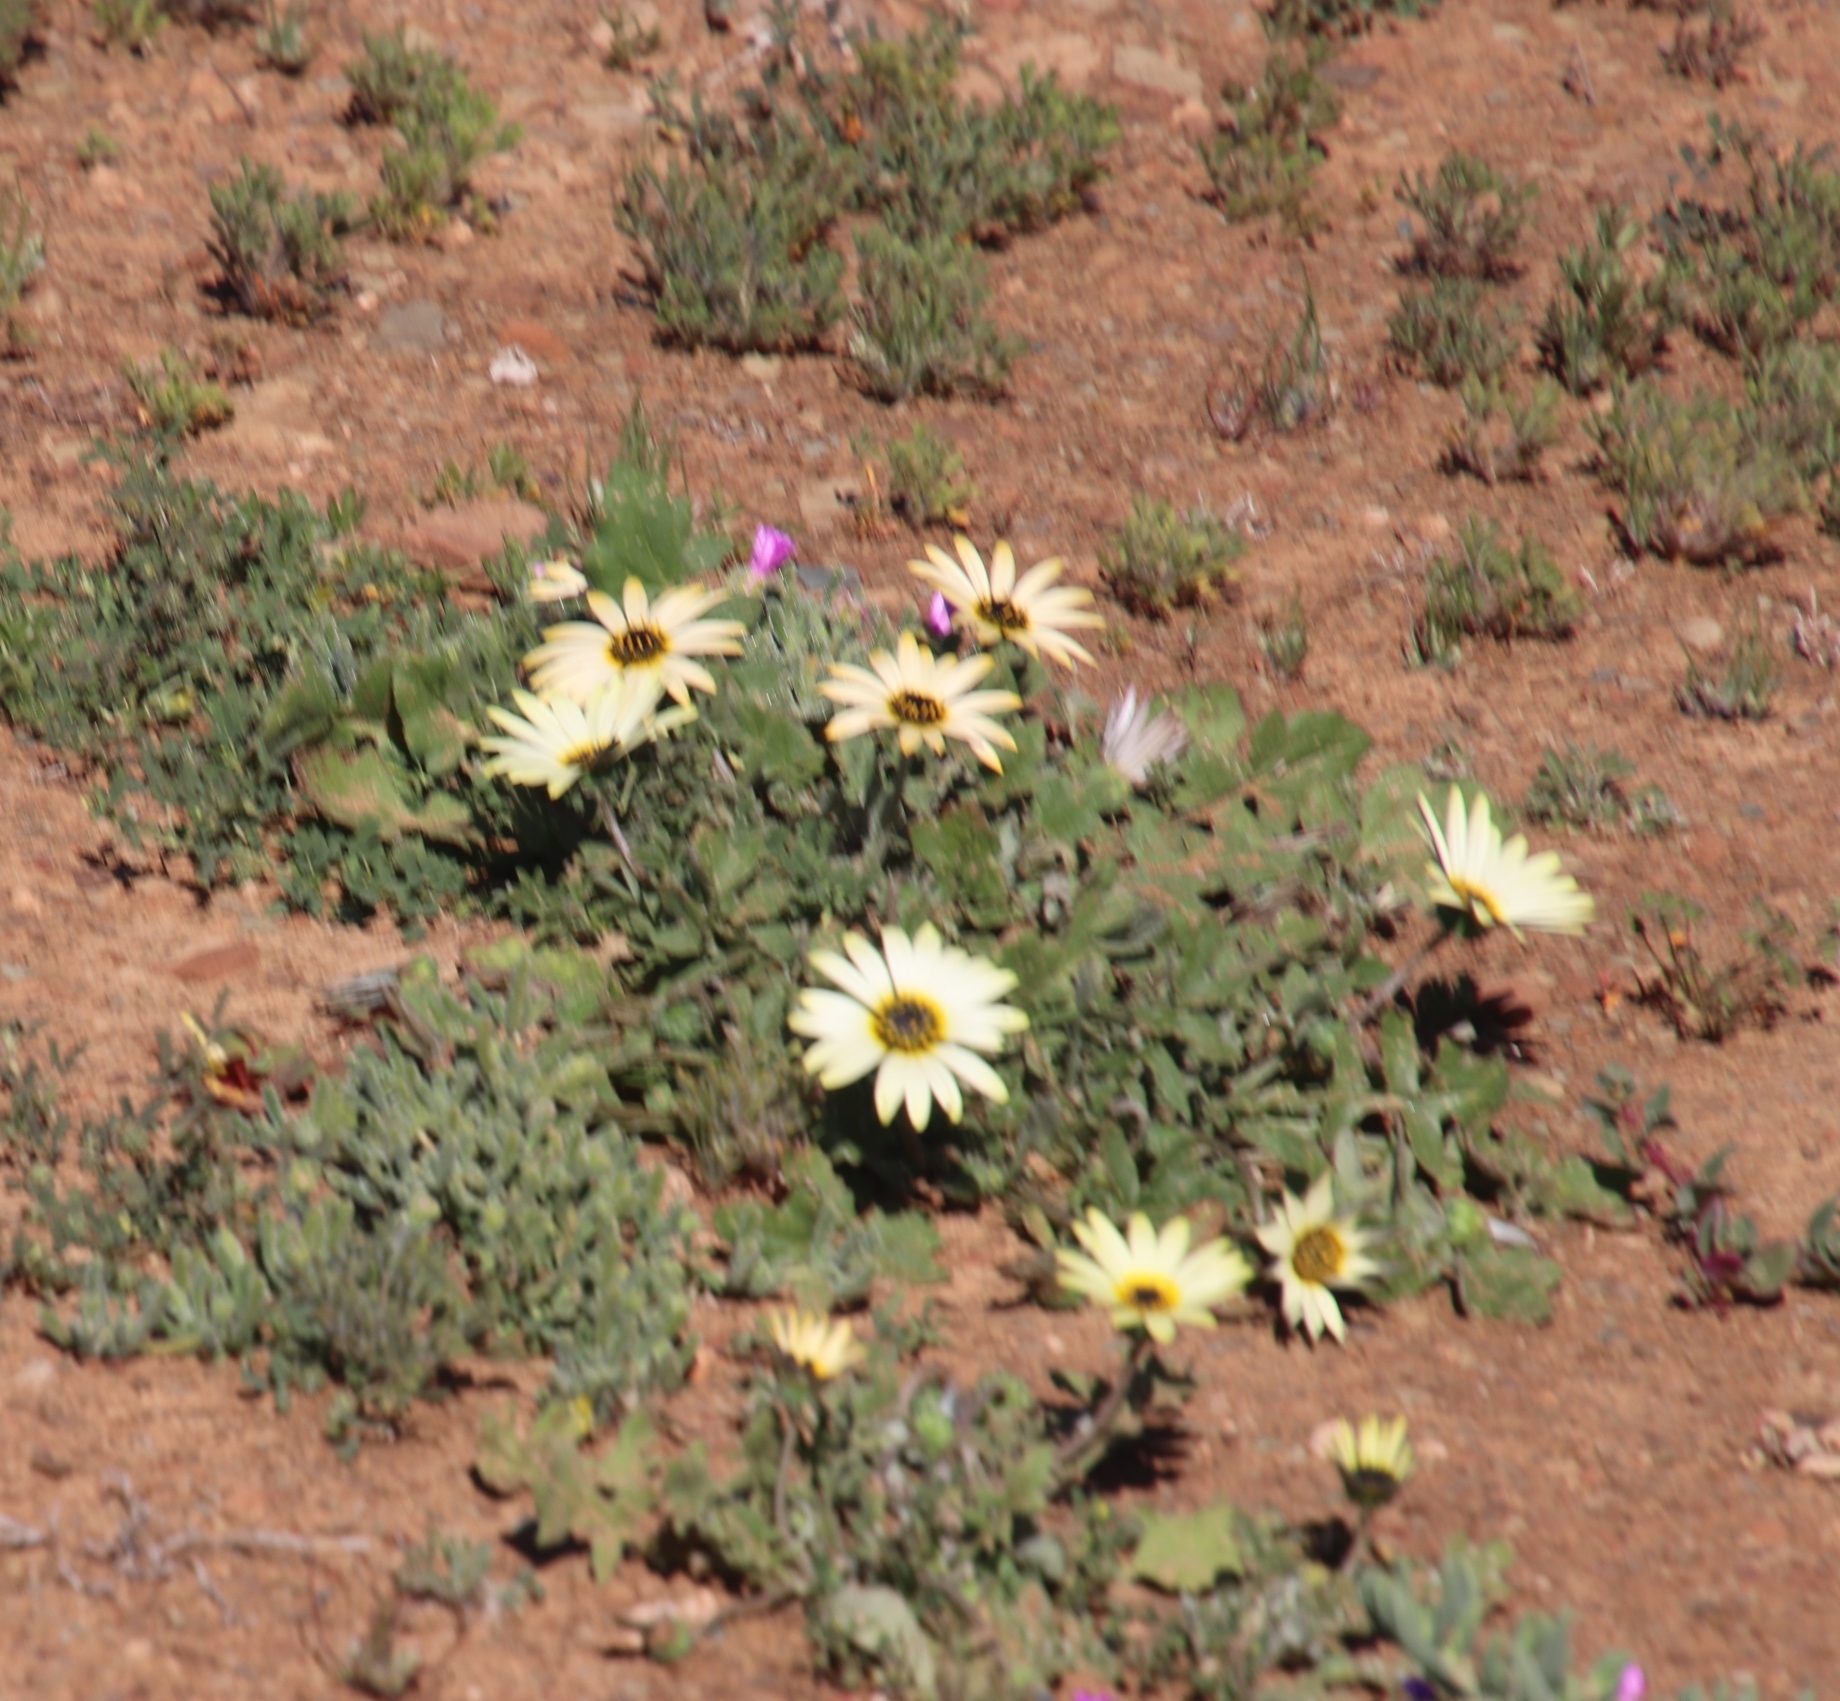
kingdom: Plantae
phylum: Tracheophyta
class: Magnoliopsida
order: Asterales
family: Asteraceae
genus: Arctotheca
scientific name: Arctotheca calendula
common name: Capeweed
